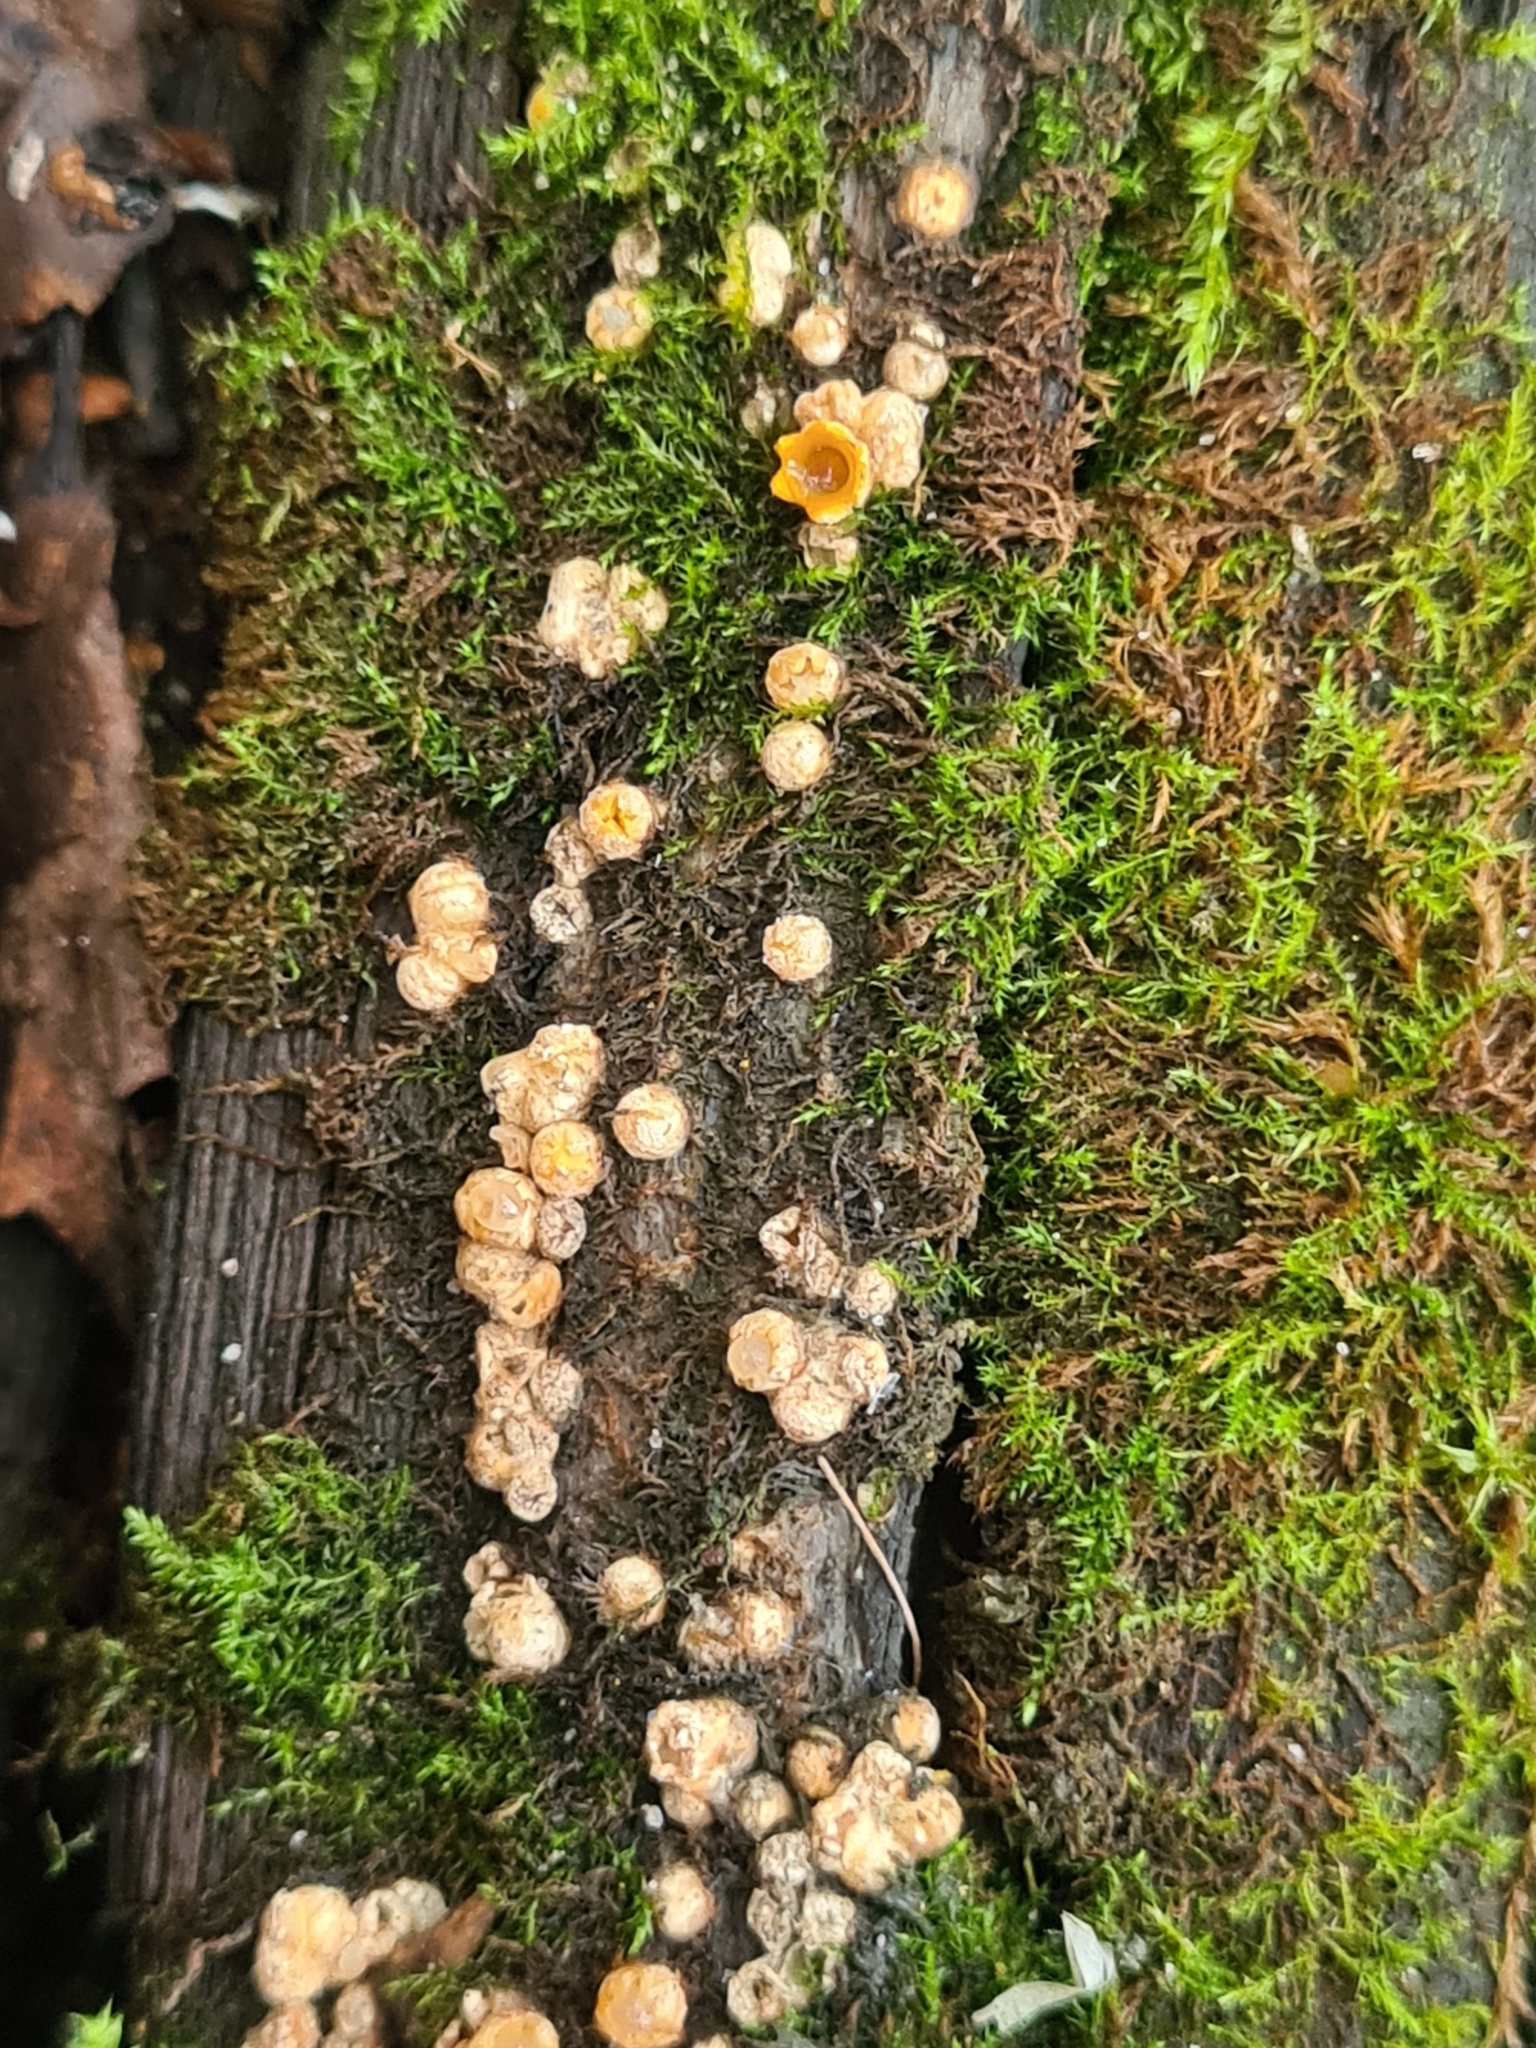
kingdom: Fungi
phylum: Basidiomycota
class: Agaricomycetes
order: Geastrales
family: Geastraceae
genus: Sphaerobolus
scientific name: Sphaerobolus stellatus
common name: Cannon fungus
